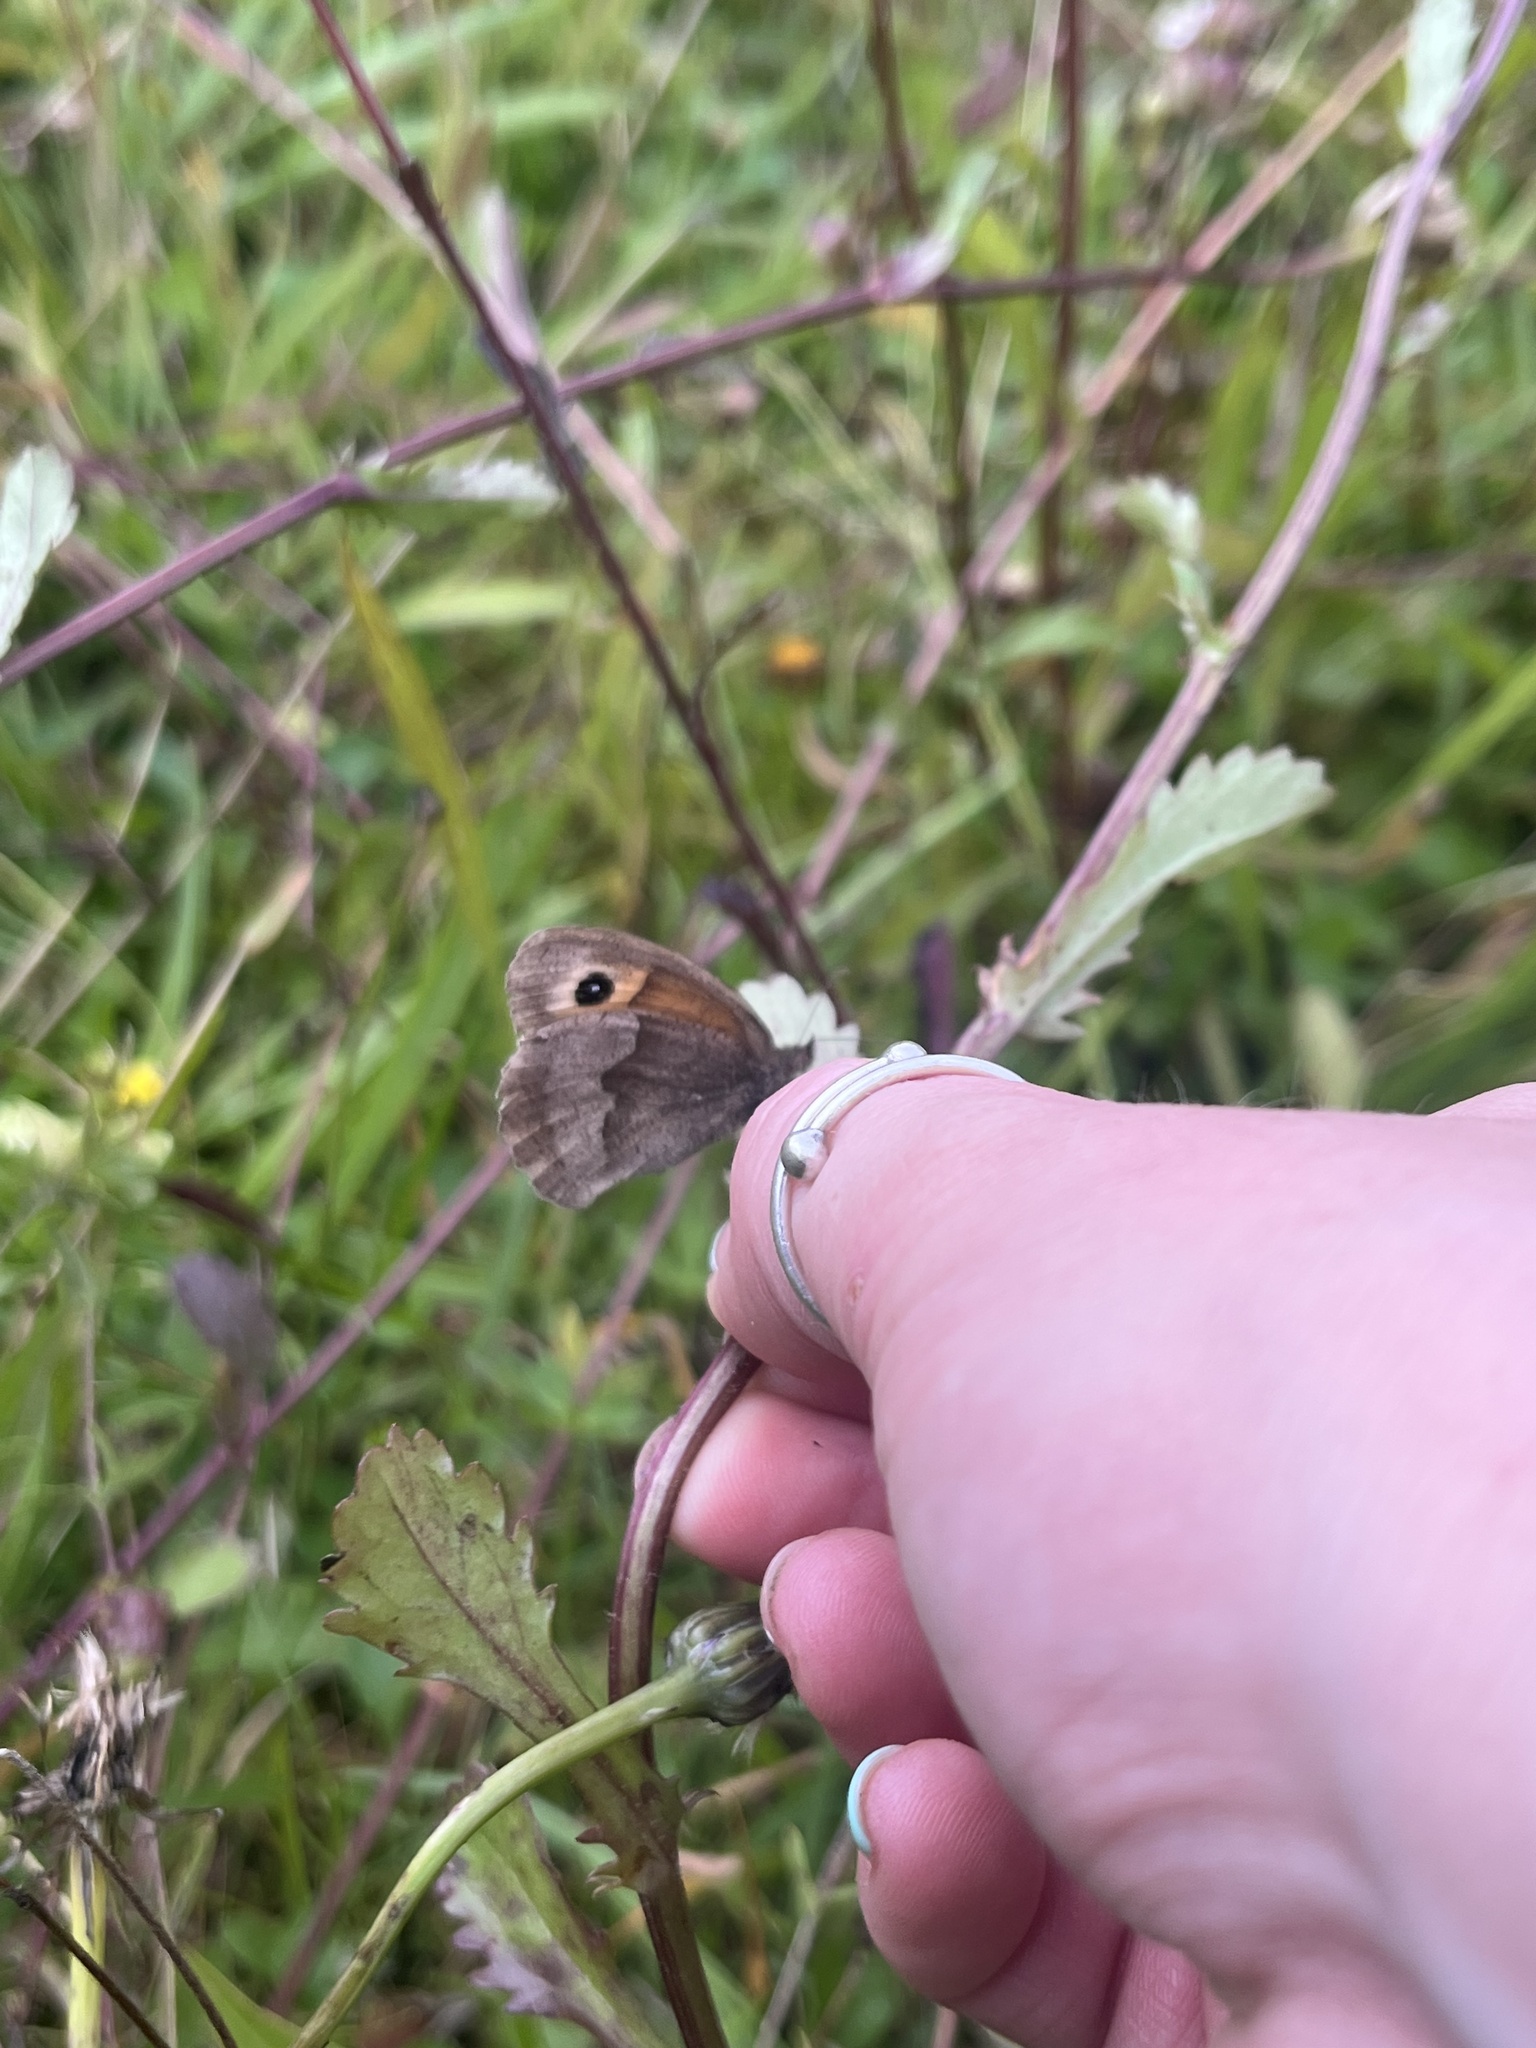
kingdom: Animalia
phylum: Arthropoda
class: Insecta
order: Lepidoptera
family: Nymphalidae
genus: Maniola
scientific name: Maniola jurtina
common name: Meadow brown
